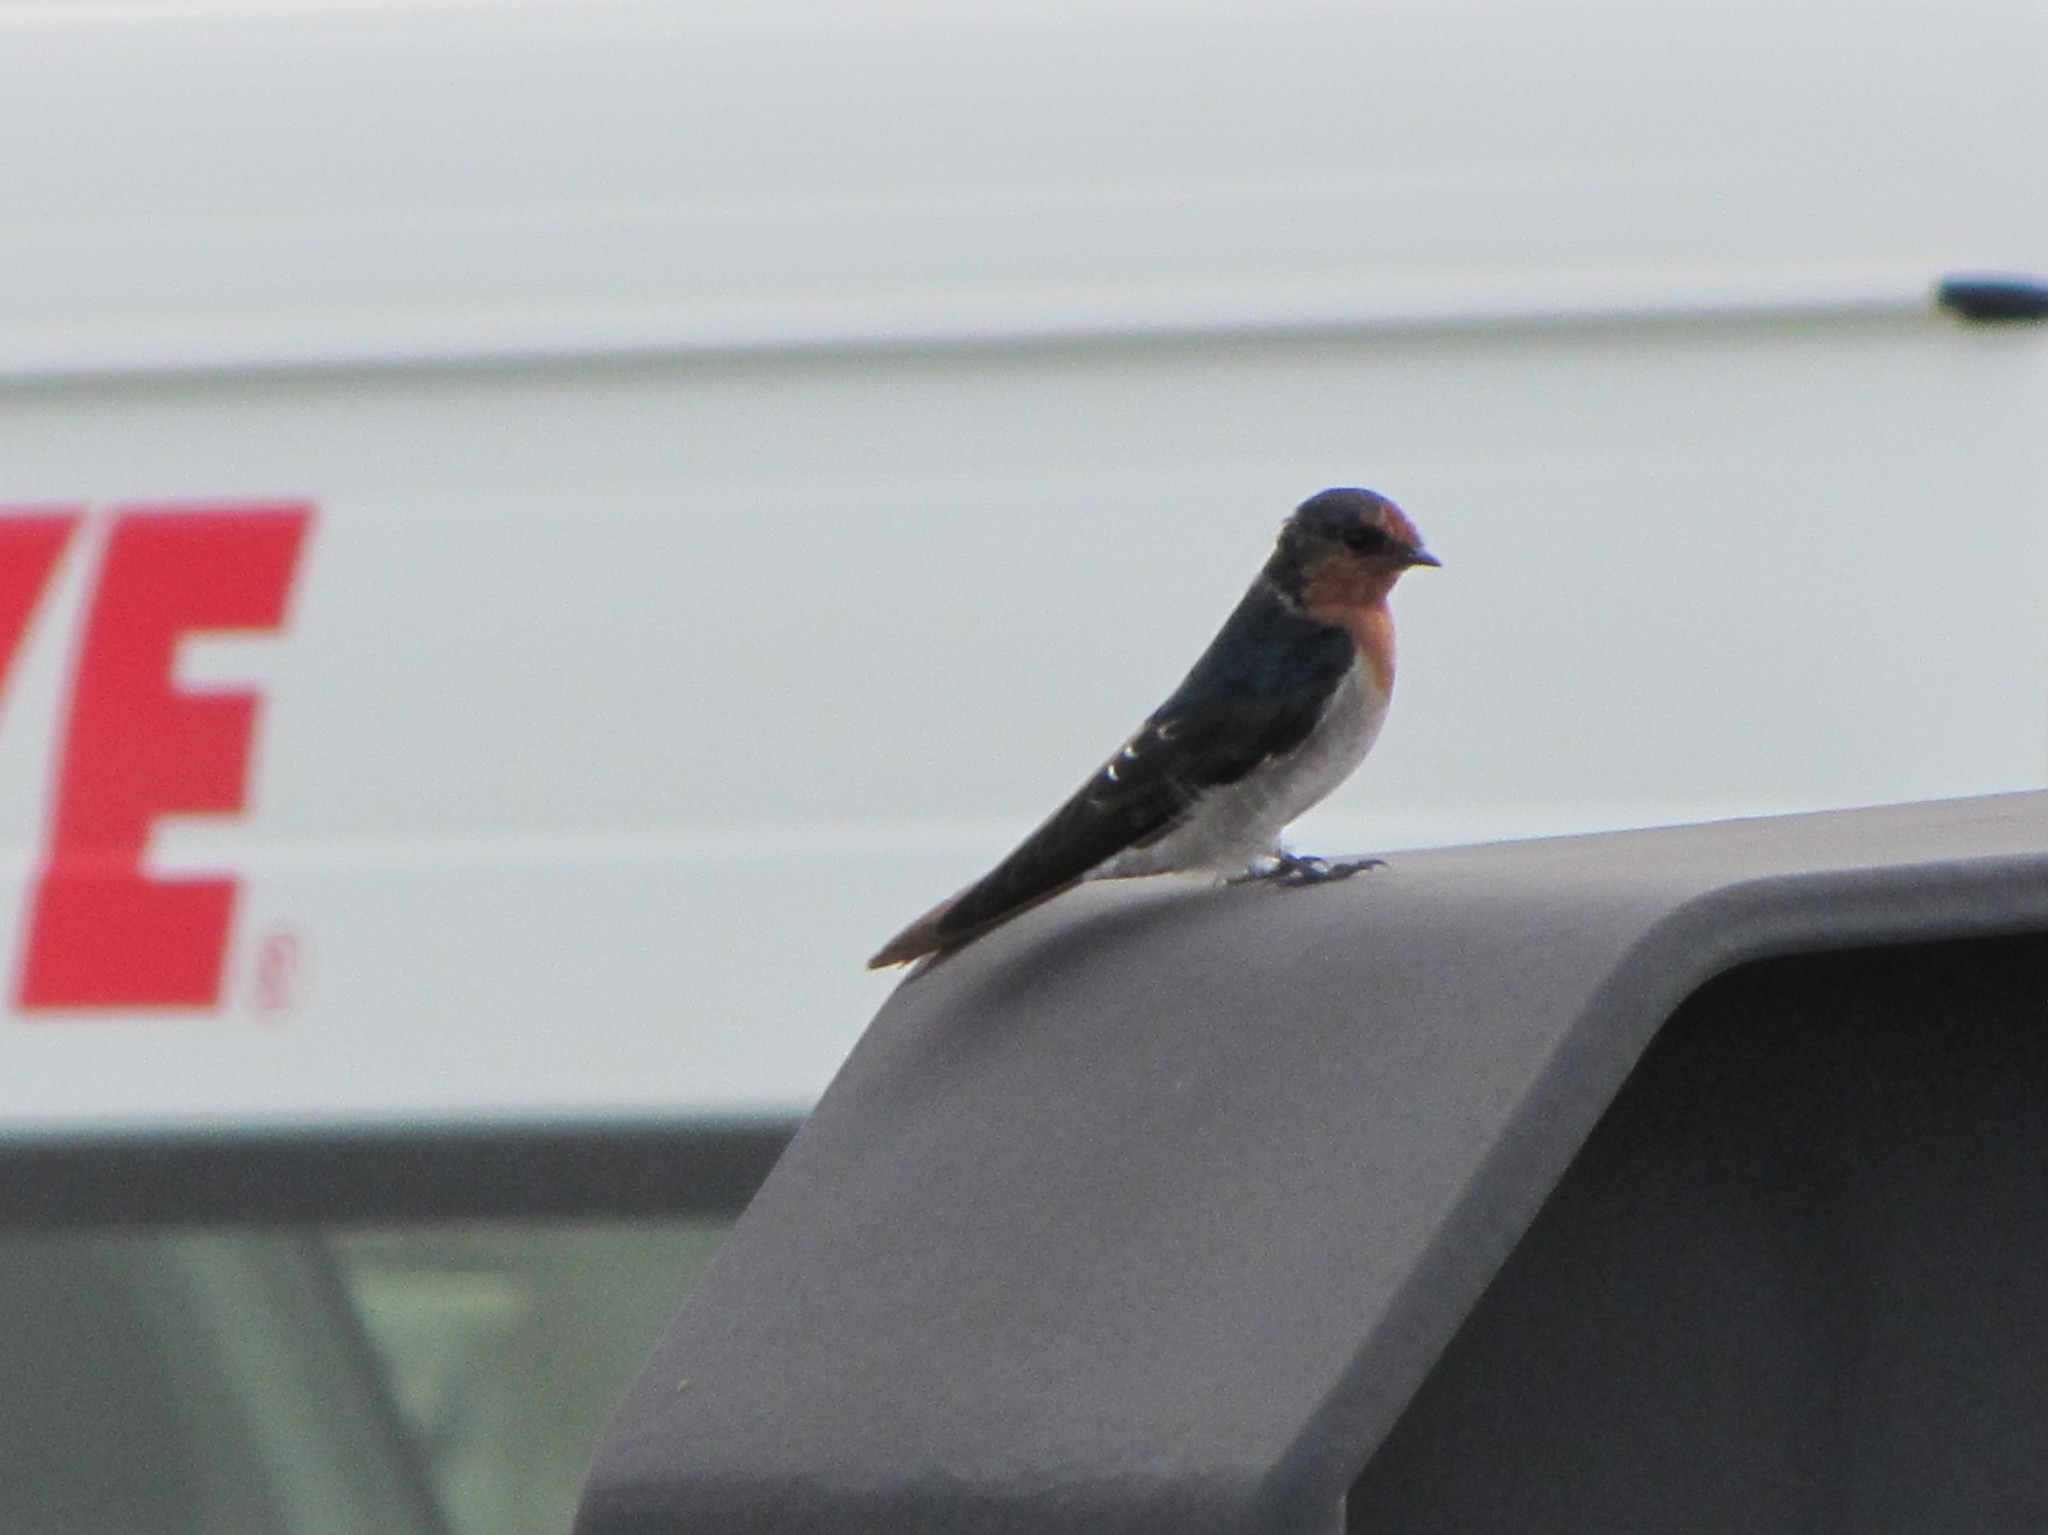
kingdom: Animalia
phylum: Chordata
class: Aves
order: Passeriformes
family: Hirundinidae
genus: Hirundo
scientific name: Hirundo neoxena
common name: Welcome swallow
